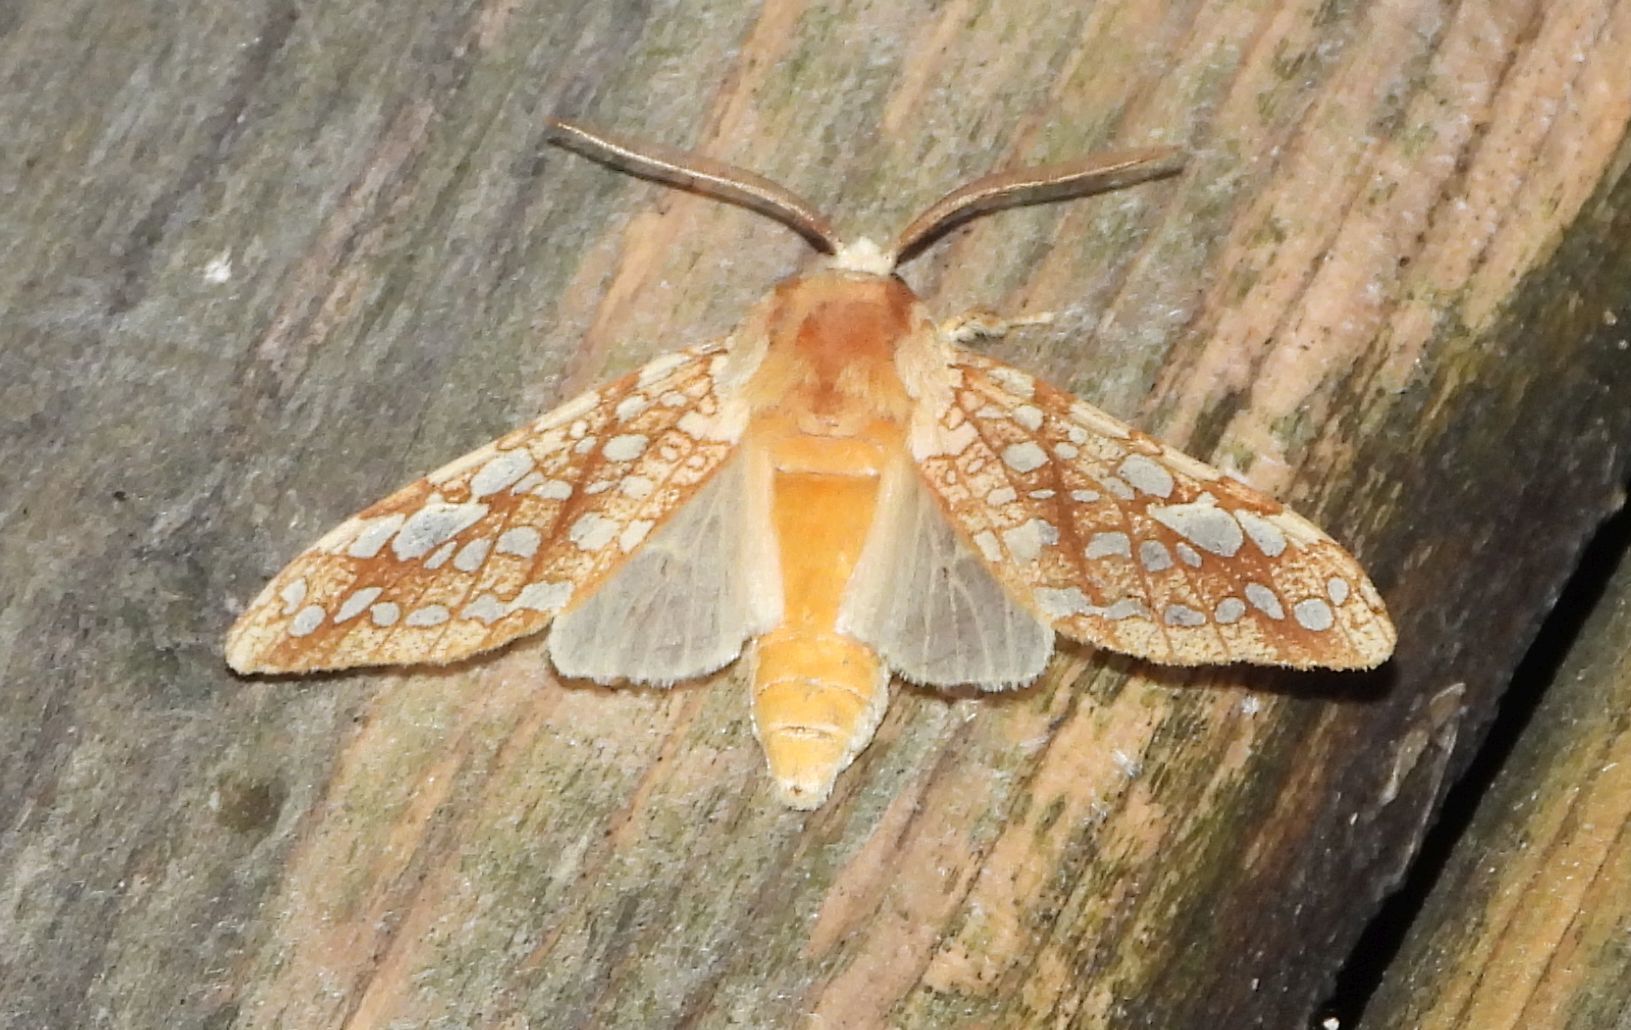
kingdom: Animalia
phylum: Arthropoda
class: Insecta
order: Lepidoptera
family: Erebidae
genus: Lophocampa
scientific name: Lophocampa caryae
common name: Hickory tussock moth
